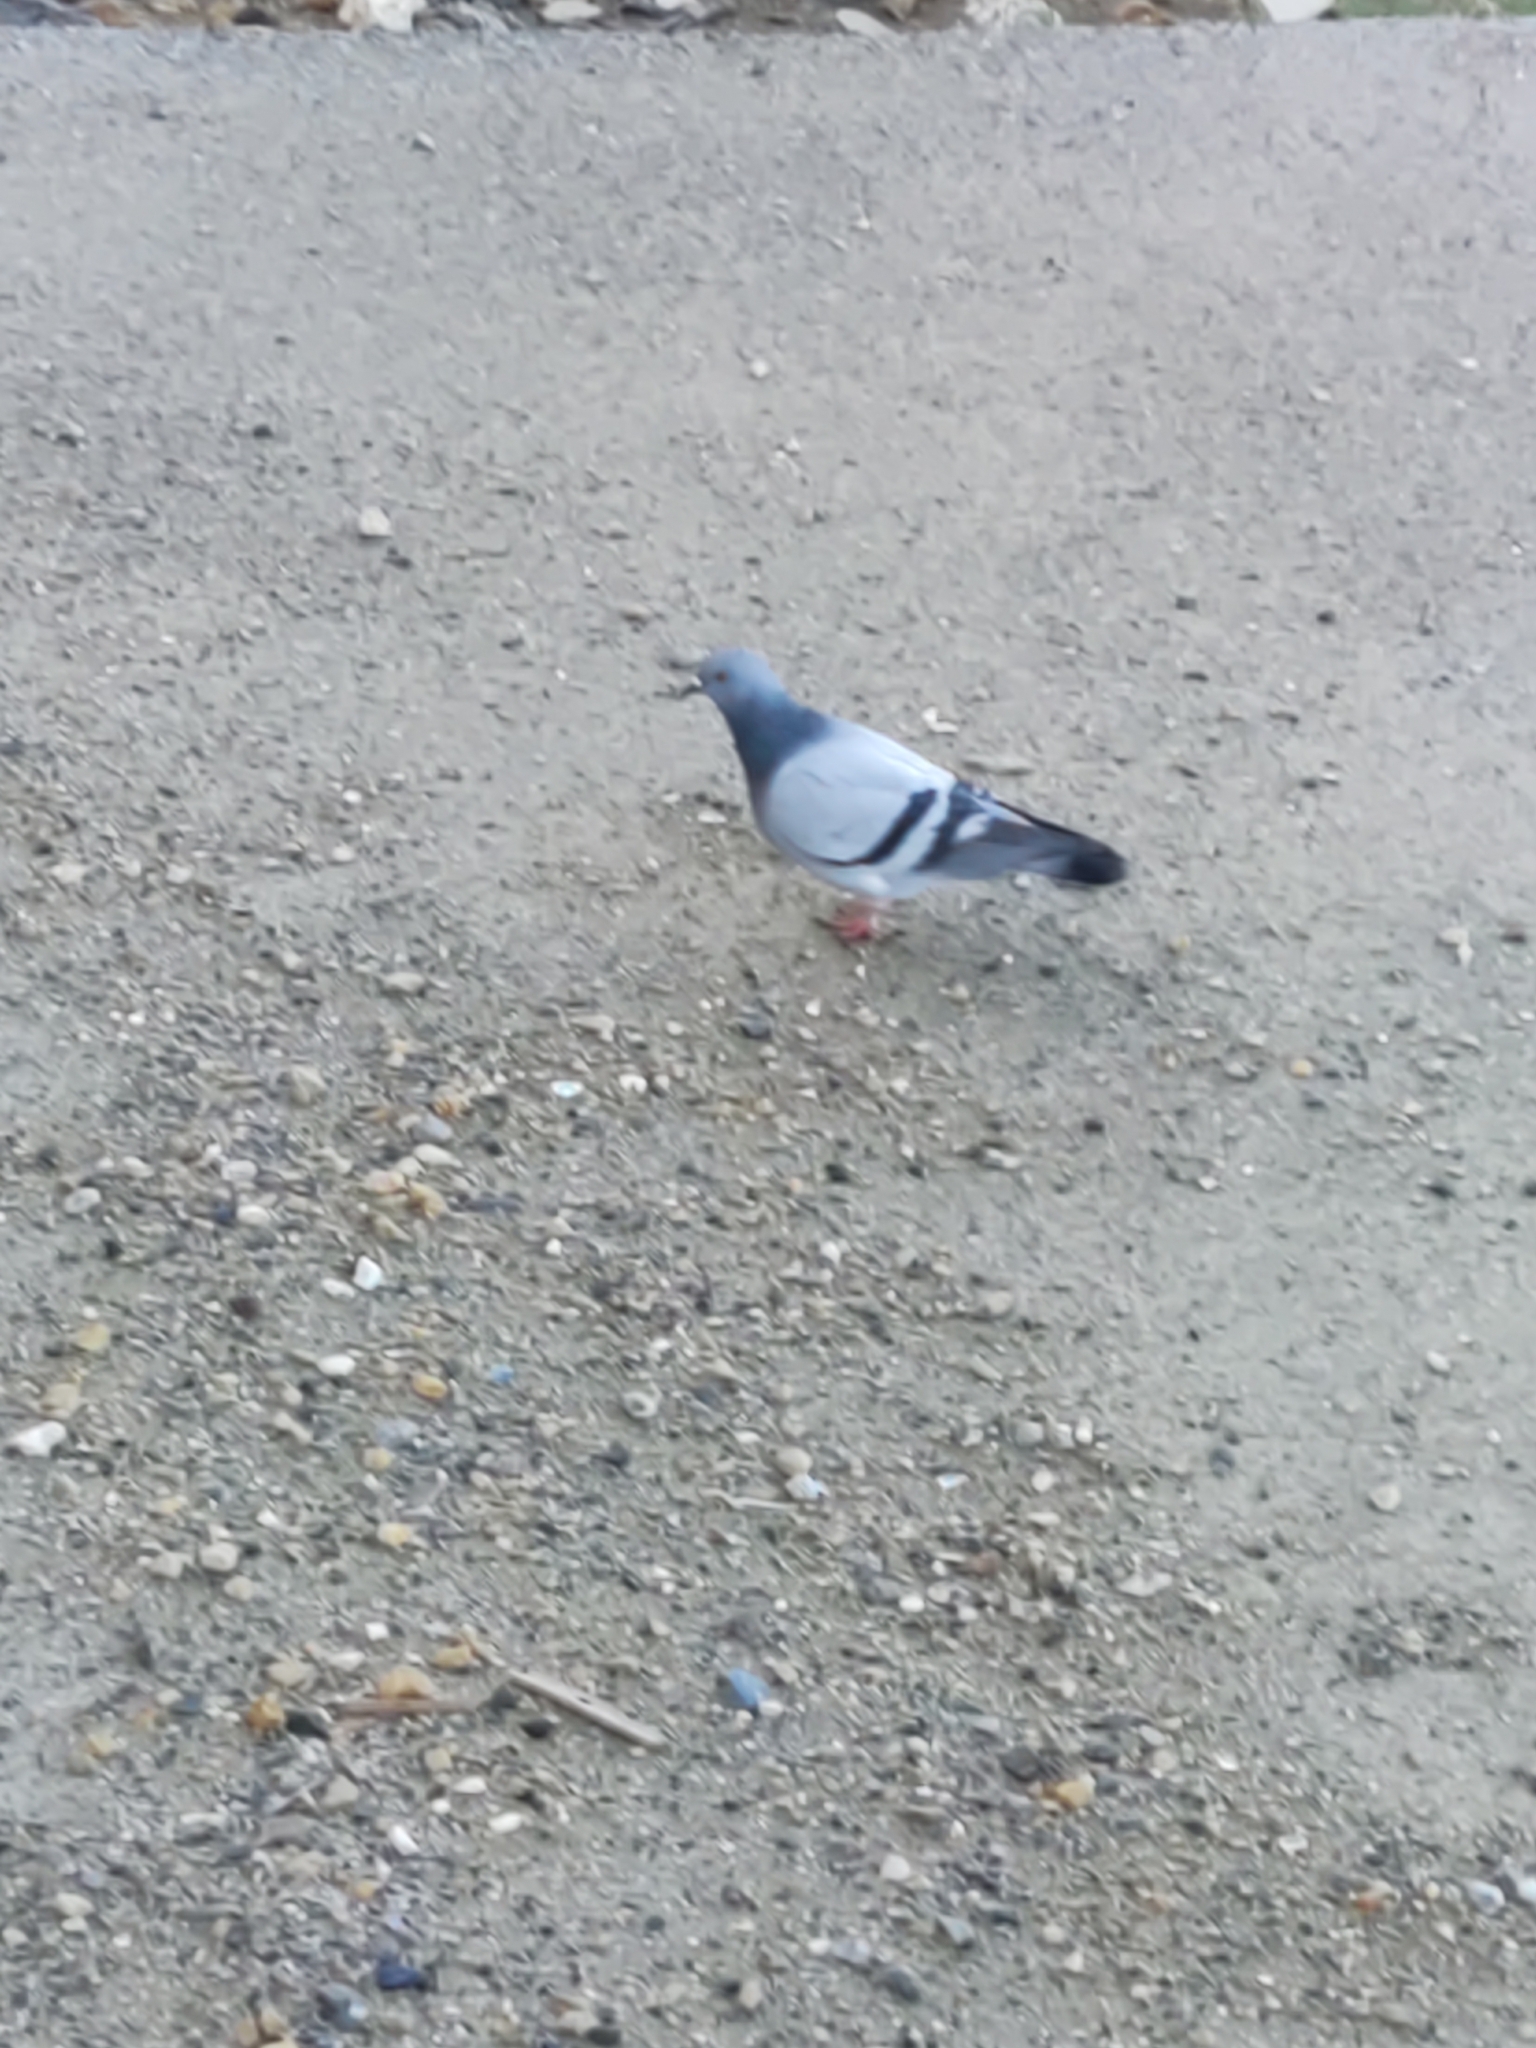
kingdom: Animalia
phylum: Chordata
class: Aves
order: Columbiformes
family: Columbidae
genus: Columba
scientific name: Columba livia
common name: Rock pigeon
